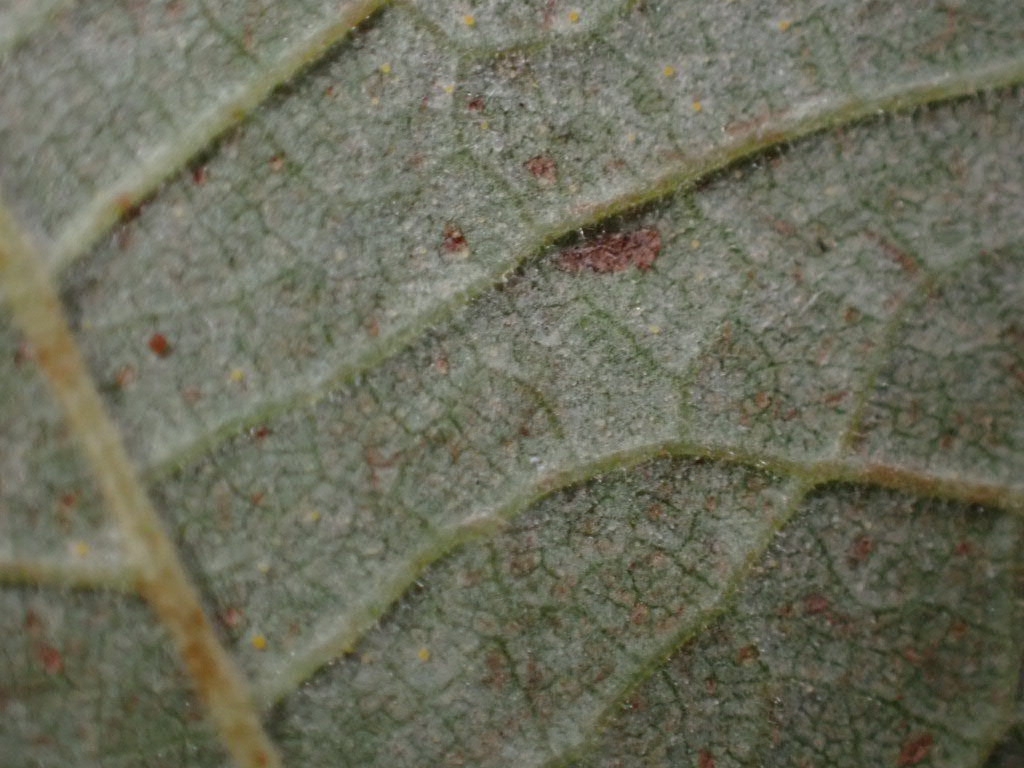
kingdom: Fungi
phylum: Ascomycota
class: Leotiomycetes
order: Helotiales
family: Erysiphaceae
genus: Phyllactinia
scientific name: Phyllactinia guttata
